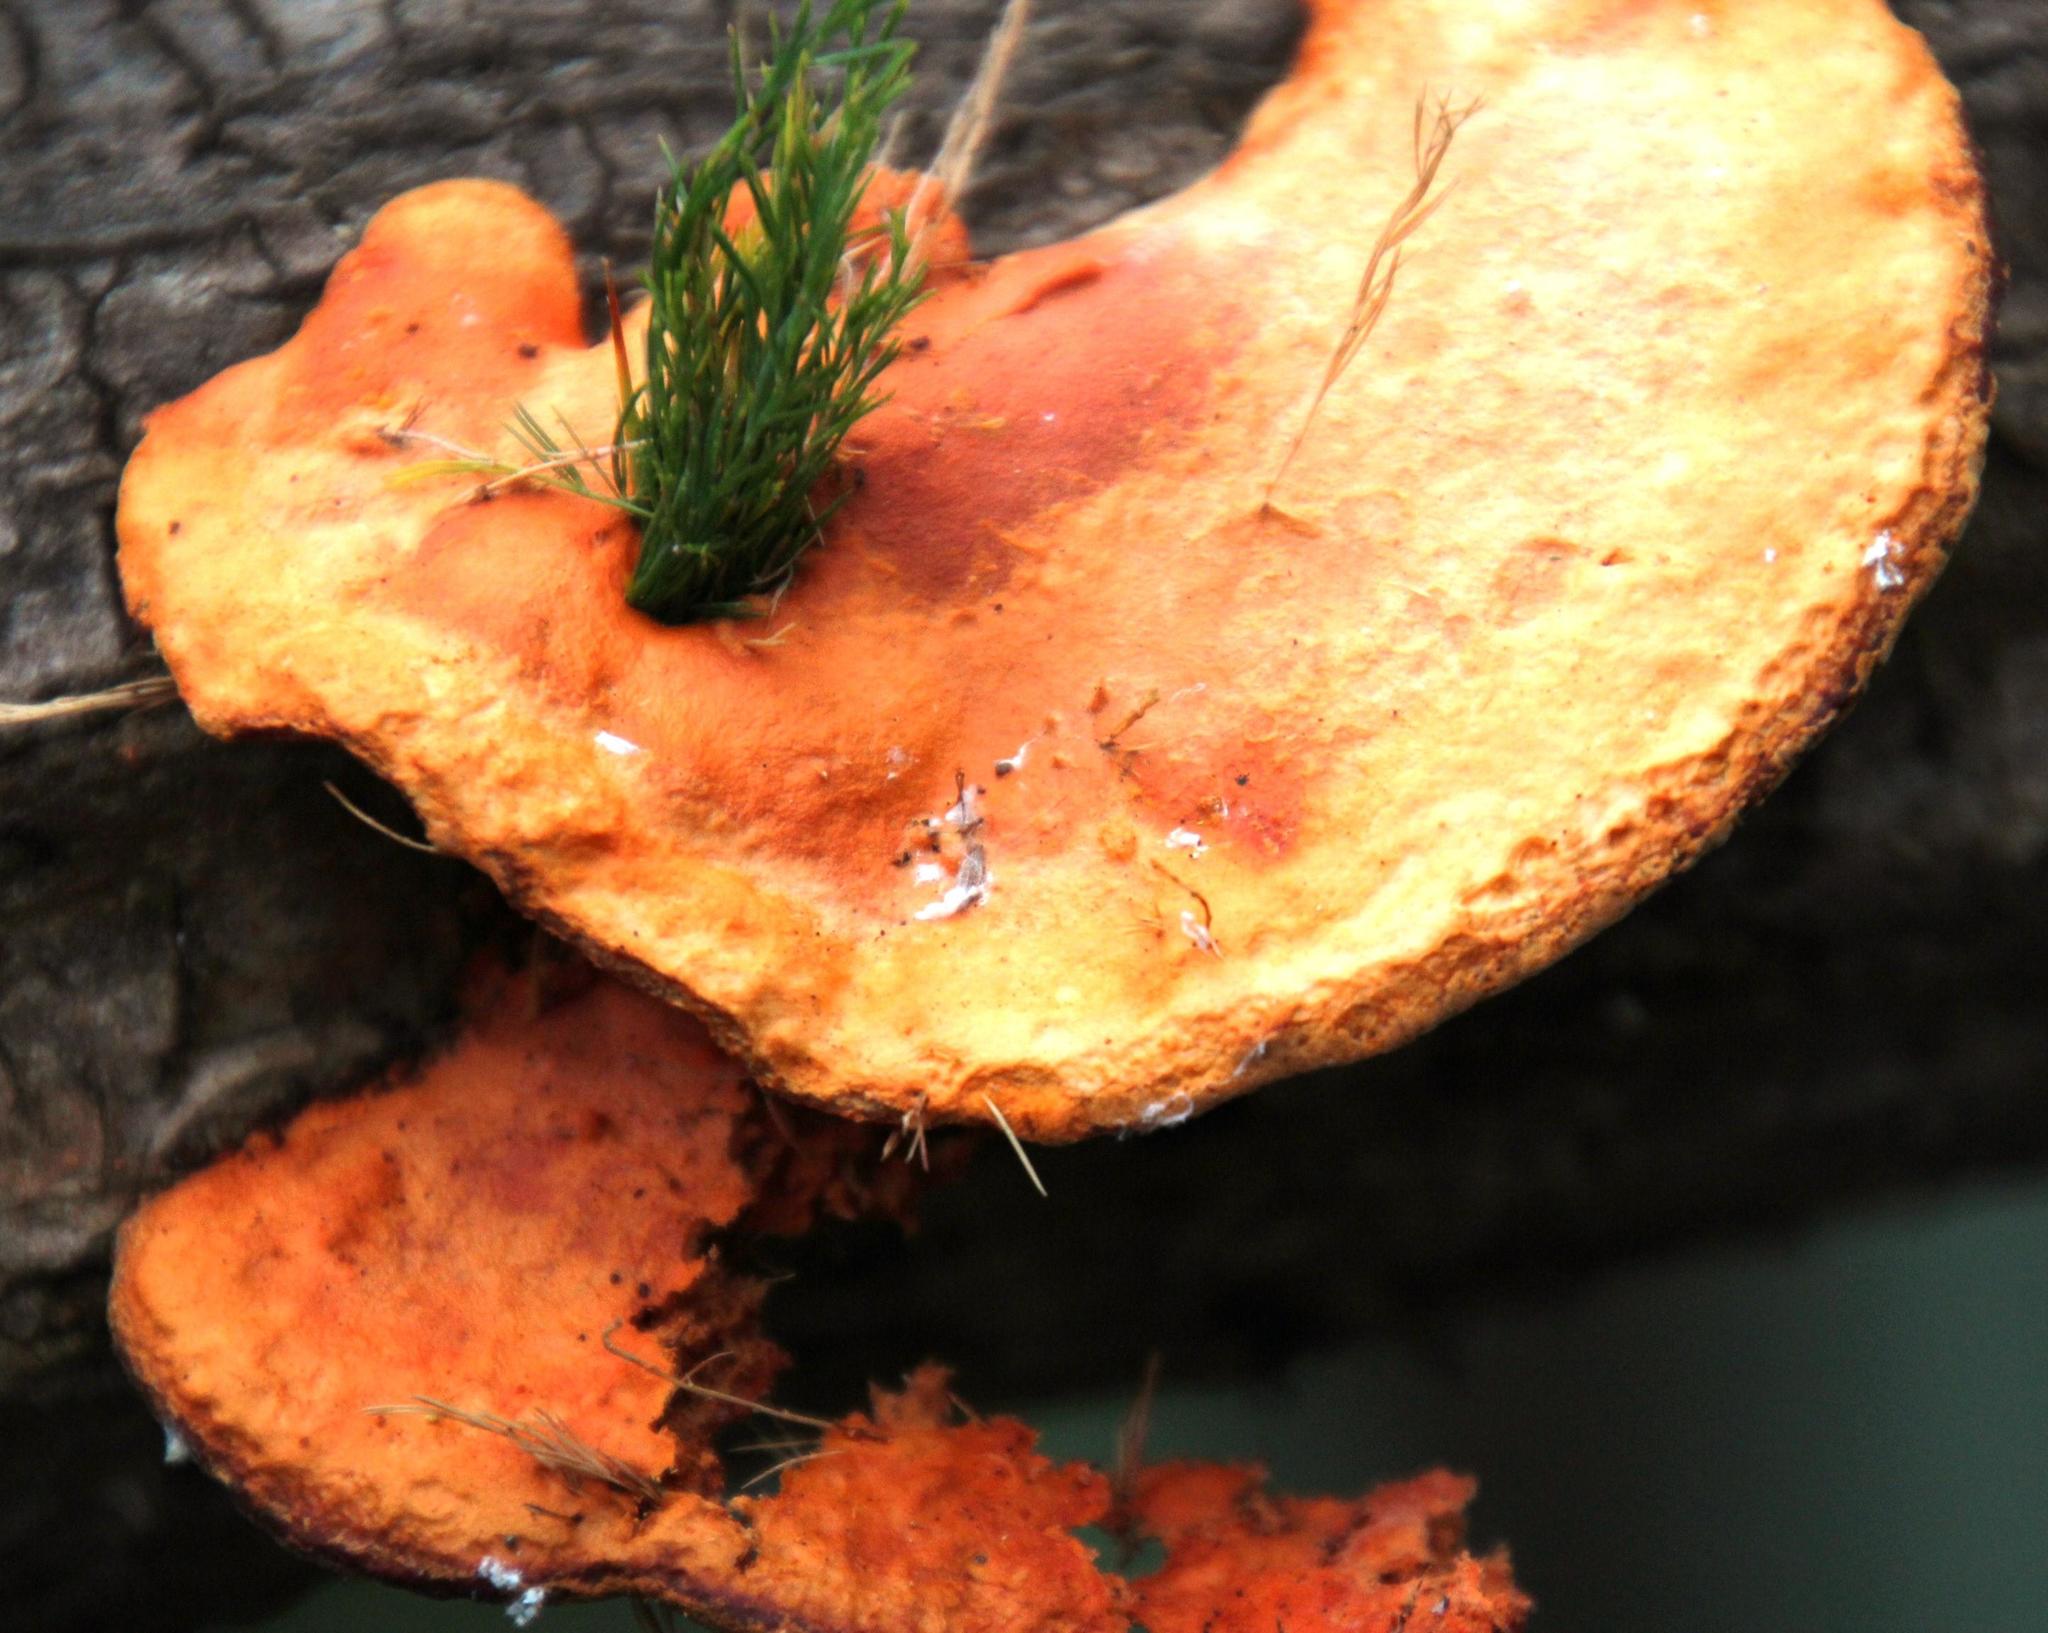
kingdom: Fungi
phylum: Basidiomycota
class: Agaricomycetes
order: Polyporales
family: Polyporaceae
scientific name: Polyporaceae
